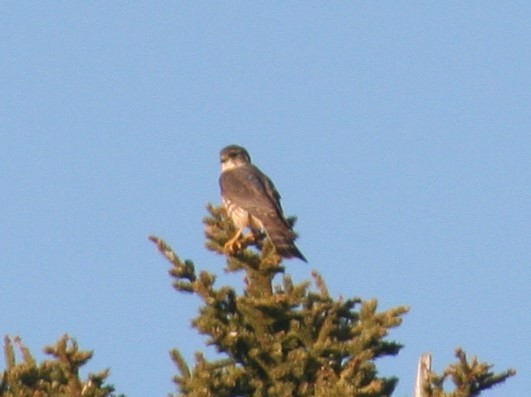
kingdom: Animalia
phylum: Chordata
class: Aves
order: Falconiformes
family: Falconidae
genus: Falco
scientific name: Falco columbarius
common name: Merlin
